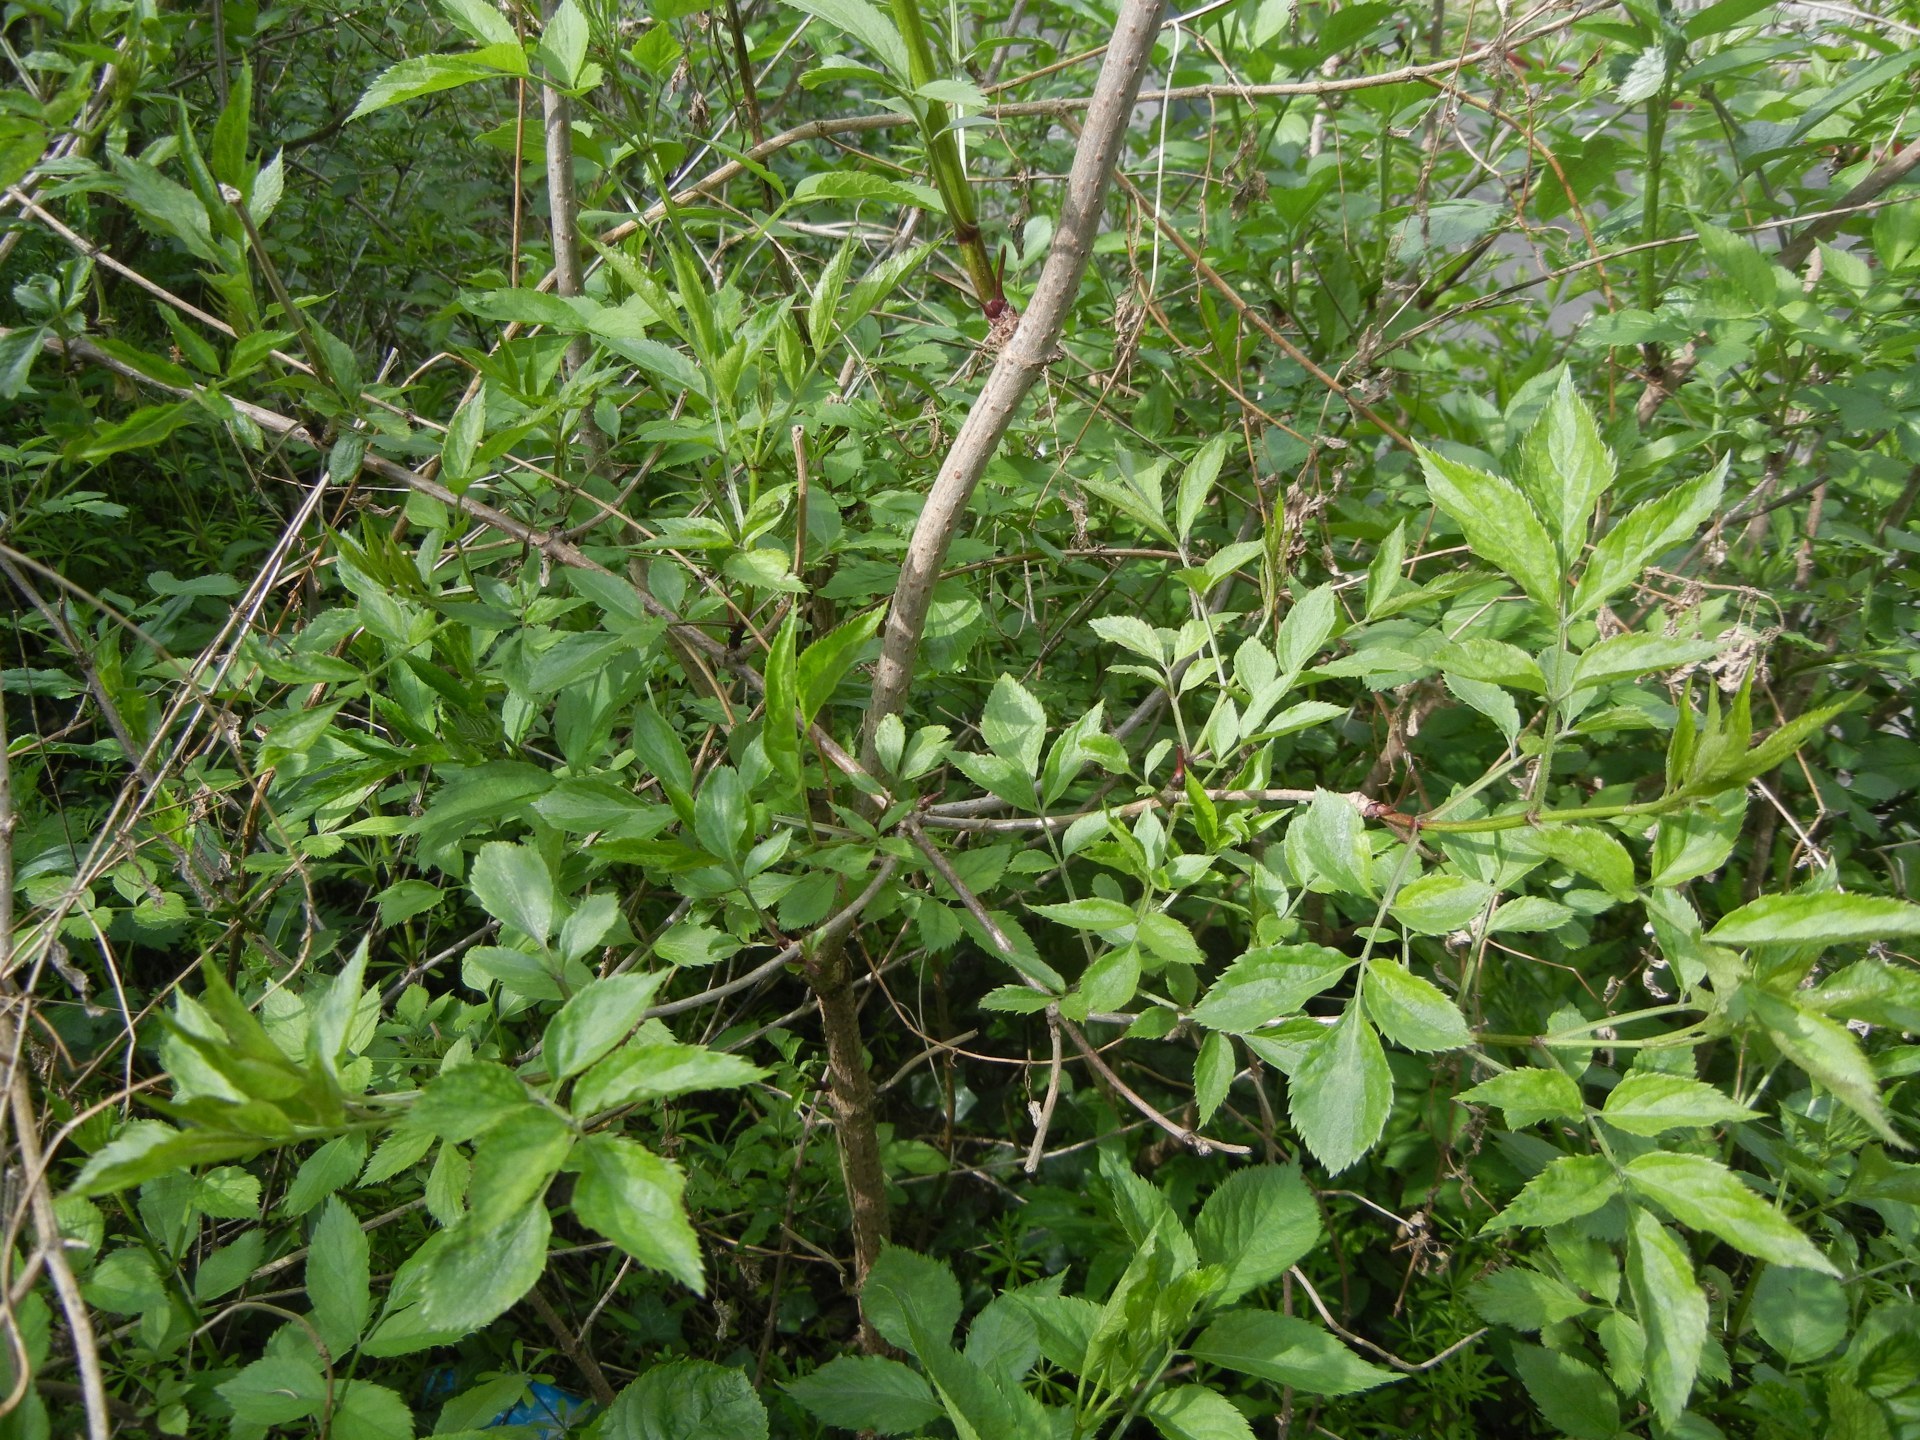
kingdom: Plantae
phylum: Tracheophyta
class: Magnoliopsida
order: Dipsacales
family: Viburnaceae
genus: Sambucus
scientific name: Sambucus nigra
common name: Elder
